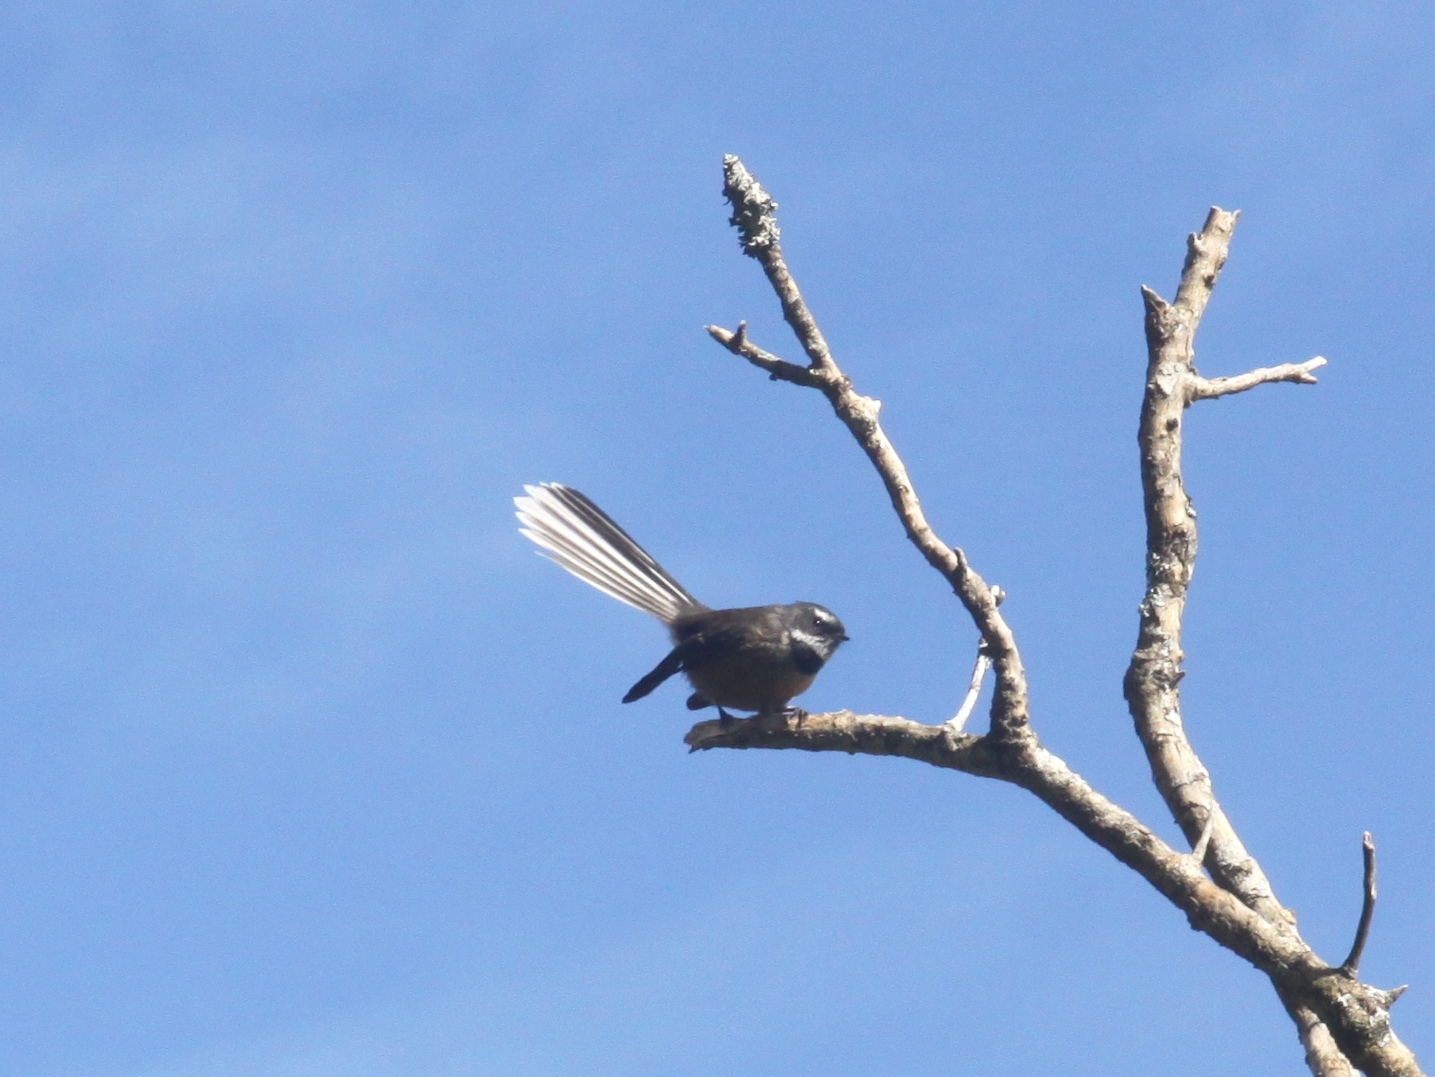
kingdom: Animalia
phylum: Chordata
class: Aves
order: Passeriformes
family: Rhipiduridae
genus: Rhipidura
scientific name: Rhipidura fuliginosa
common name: New zealand fantail
